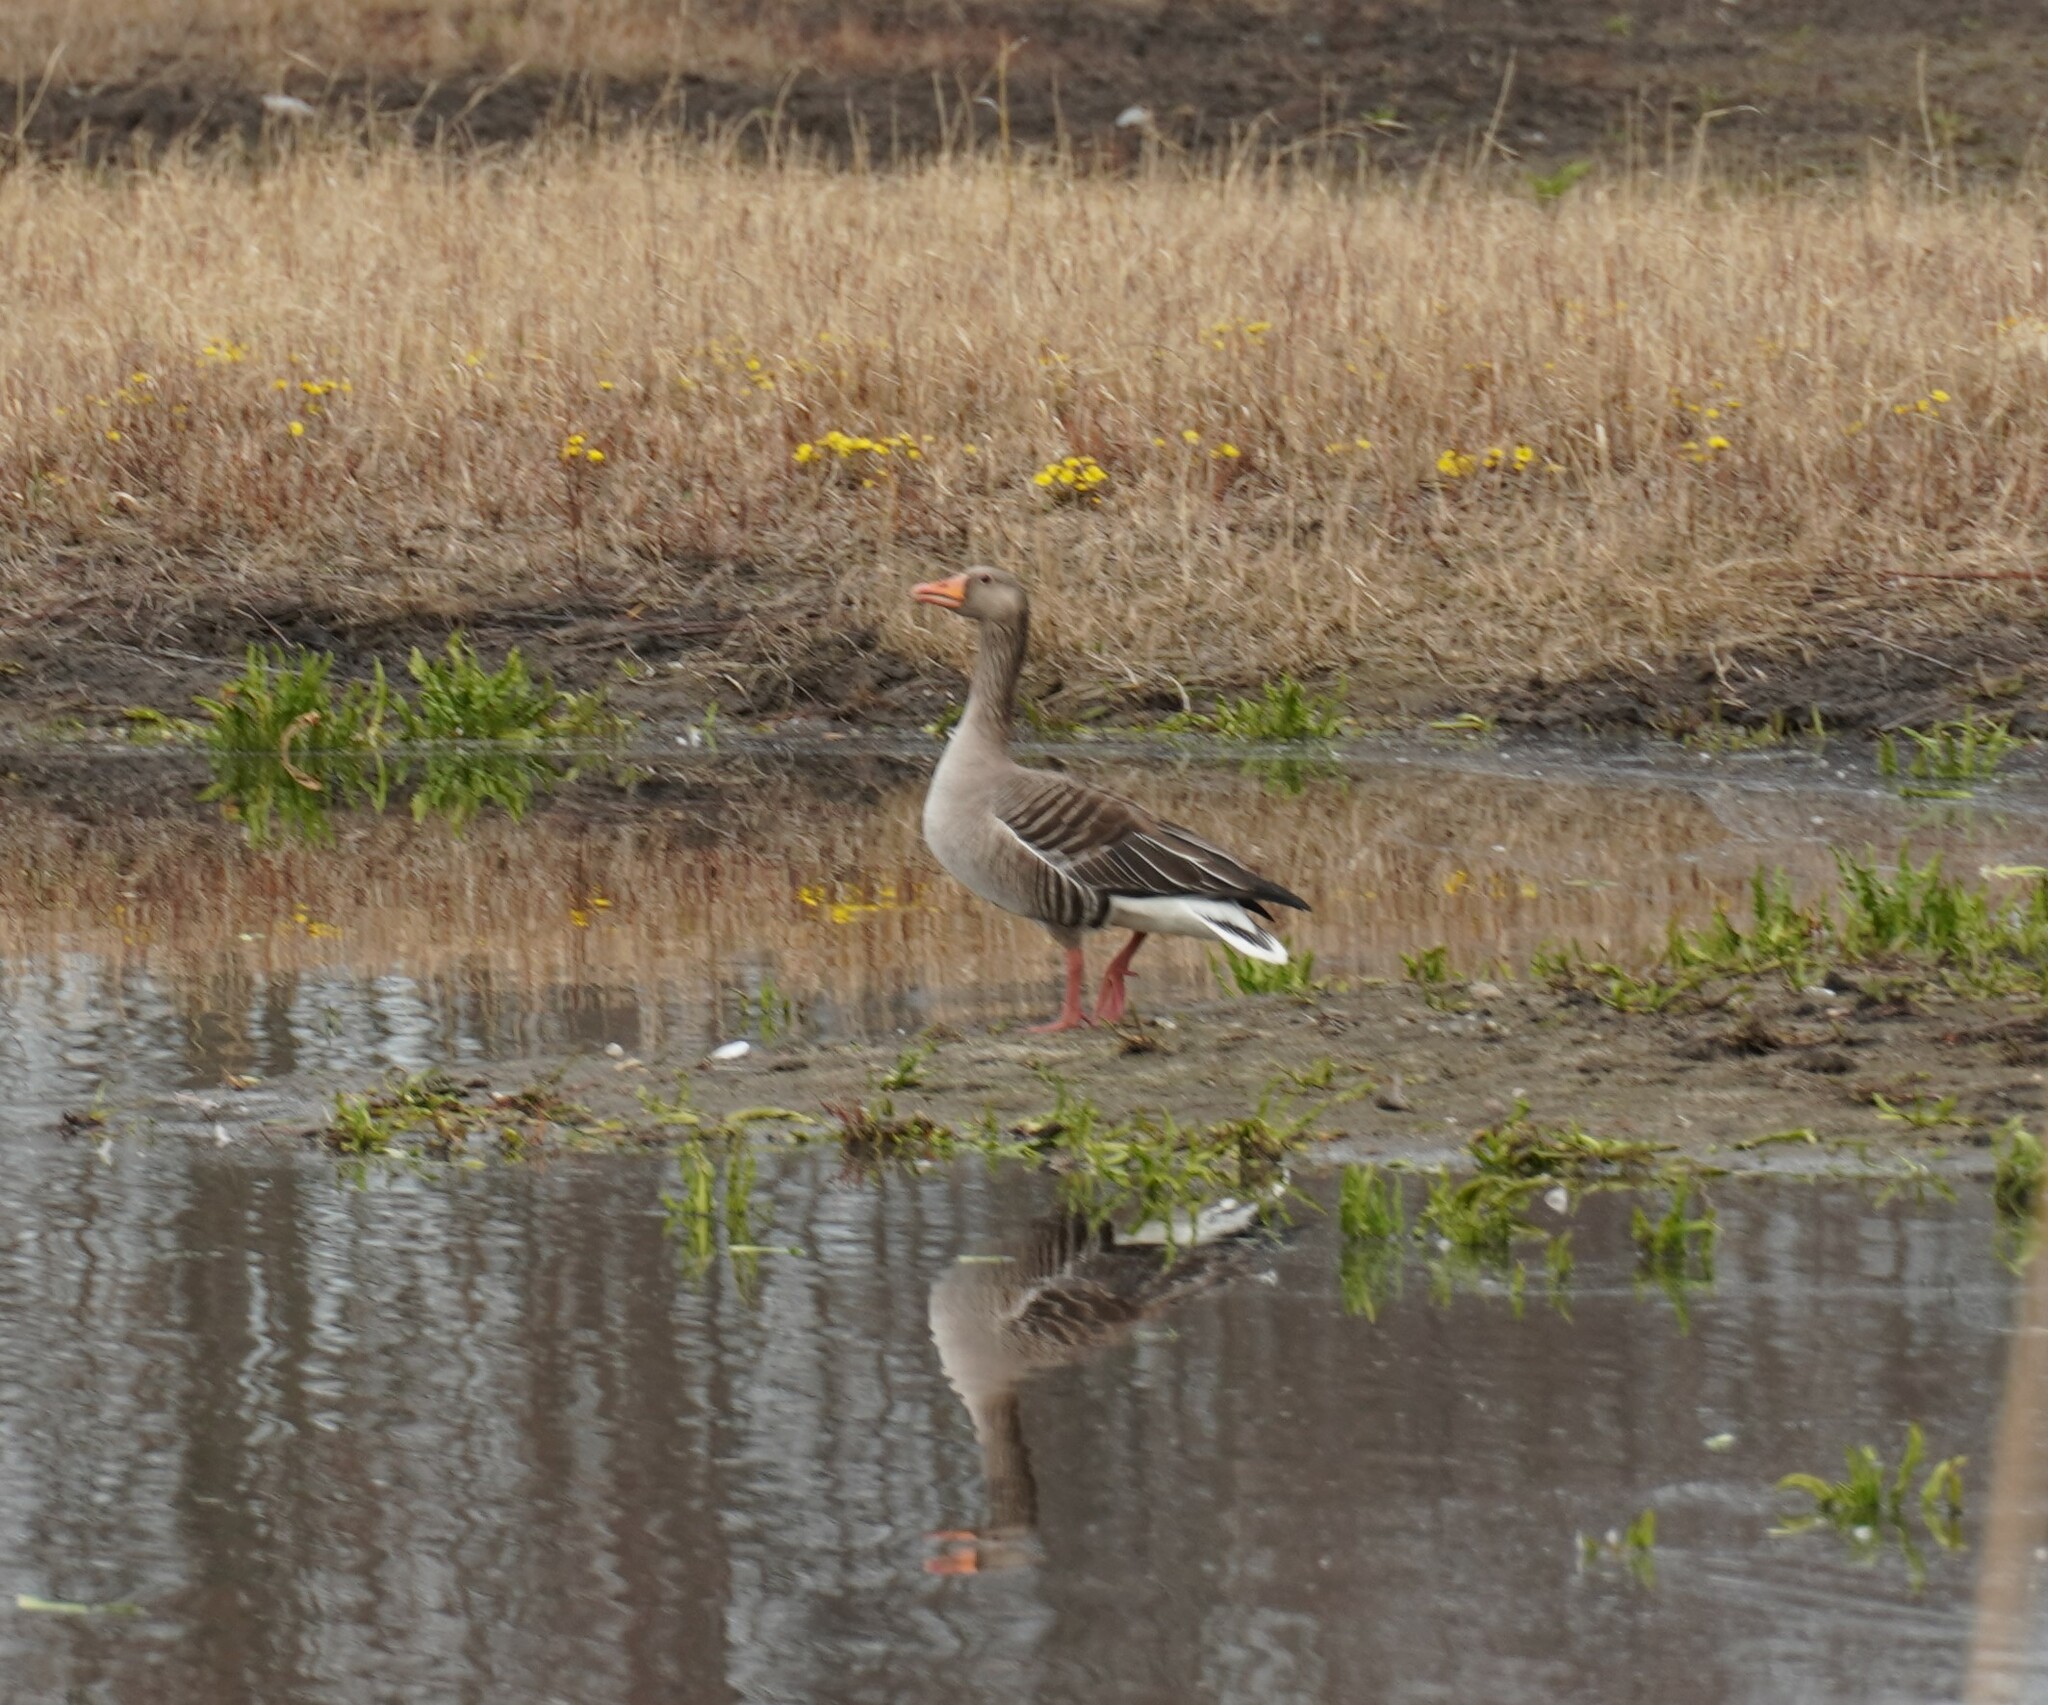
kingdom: Animalia
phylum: Chordata
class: Aves
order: Anseriformes
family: Anatidae
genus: Anser
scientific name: Anser anser
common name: Greylag goose
